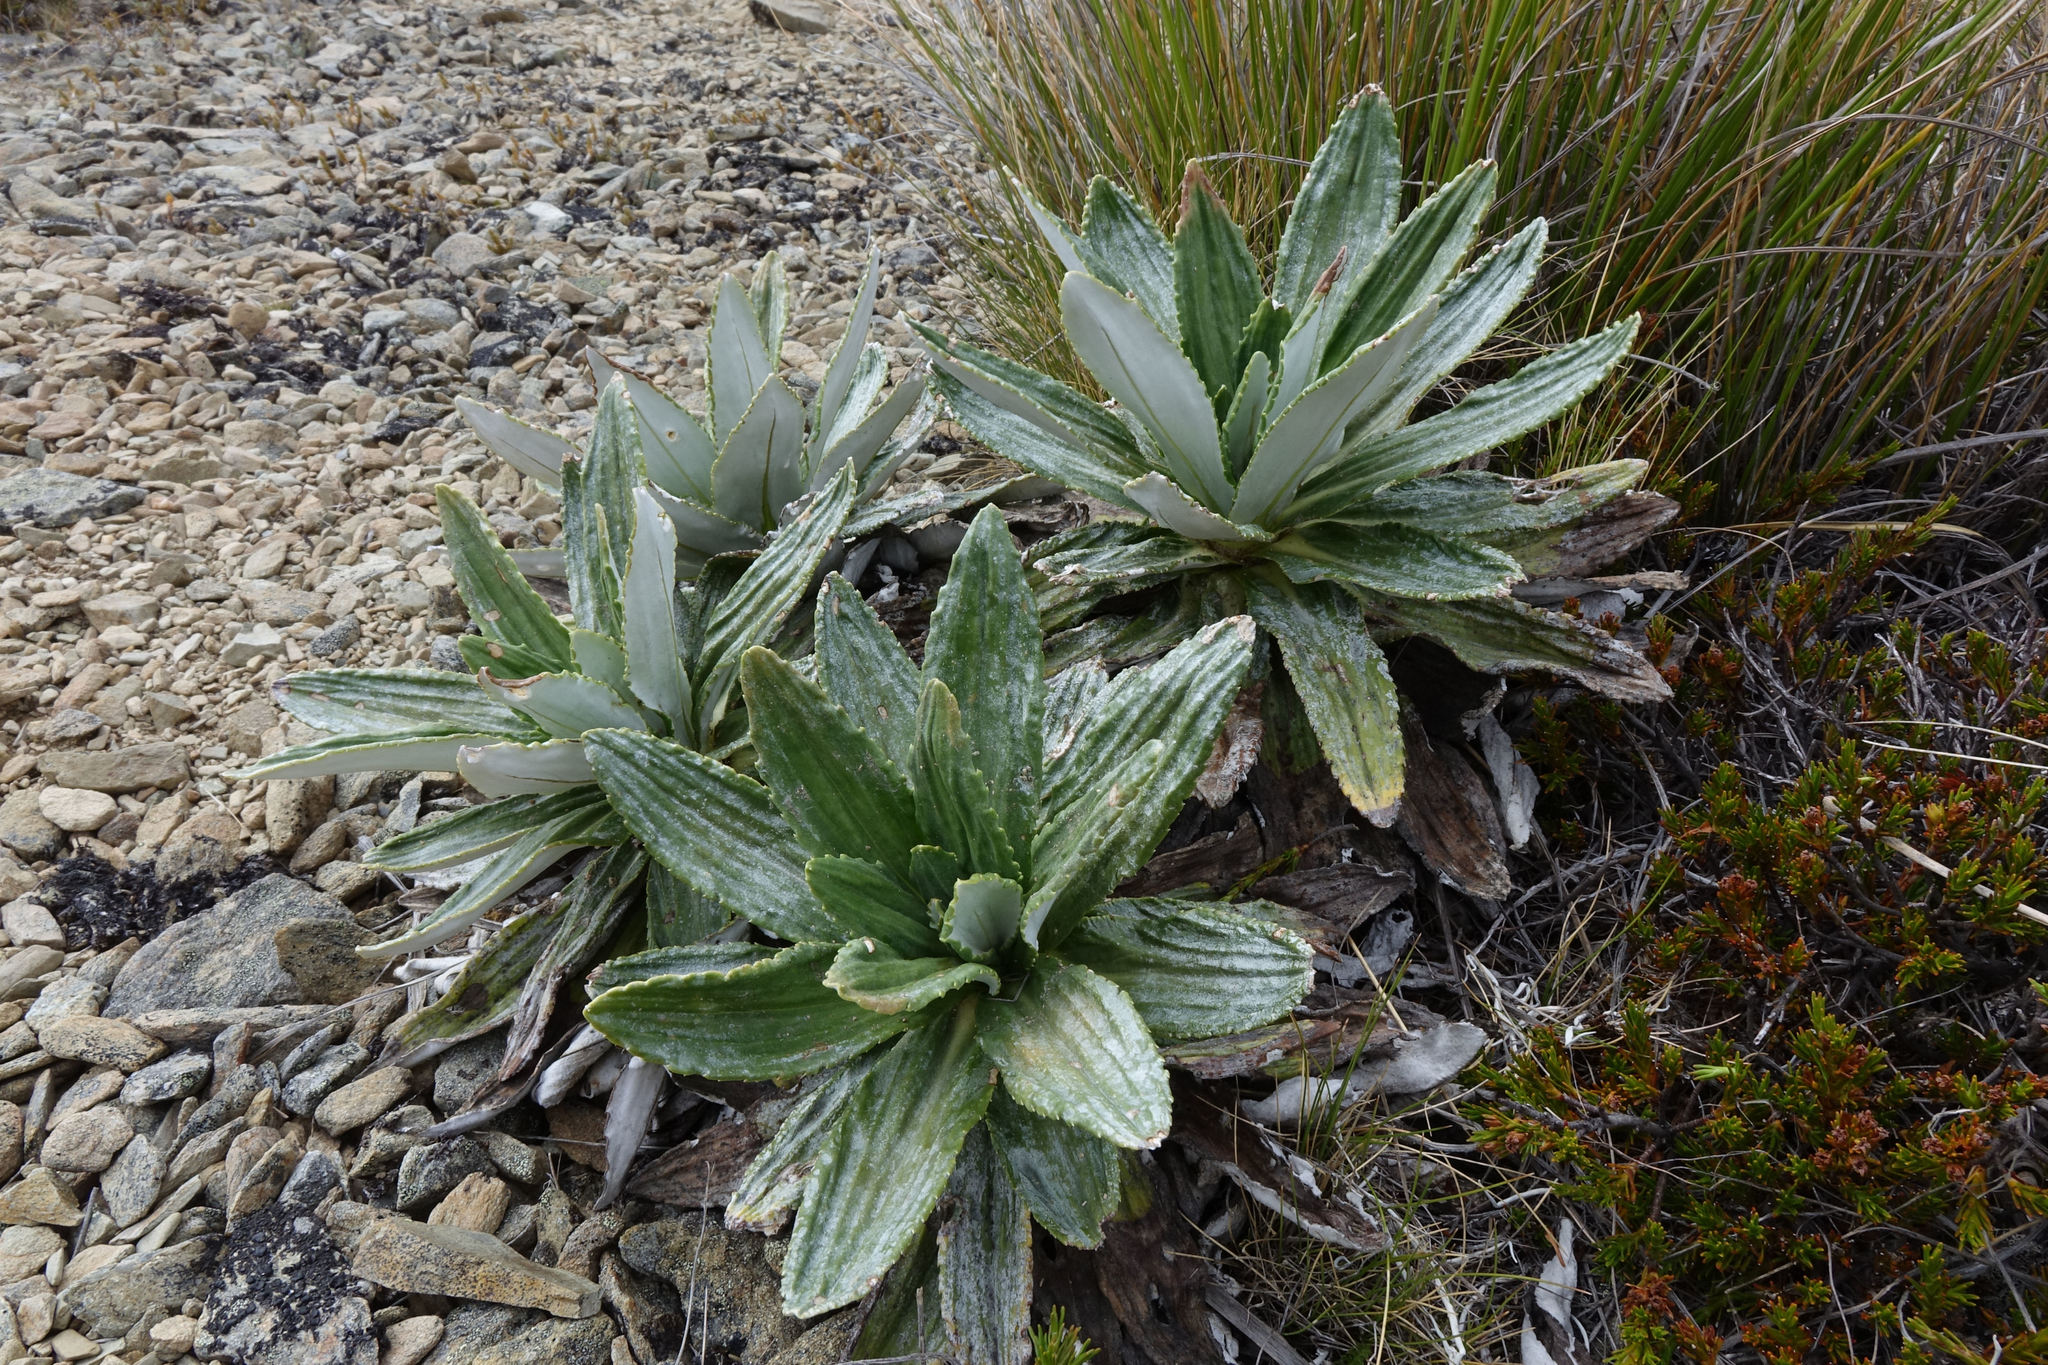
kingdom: Plantae
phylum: Tracheophyta
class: Magnoliopsida
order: Asterales
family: Asteraceae
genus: Celmisia
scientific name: Celmisia densiflora
